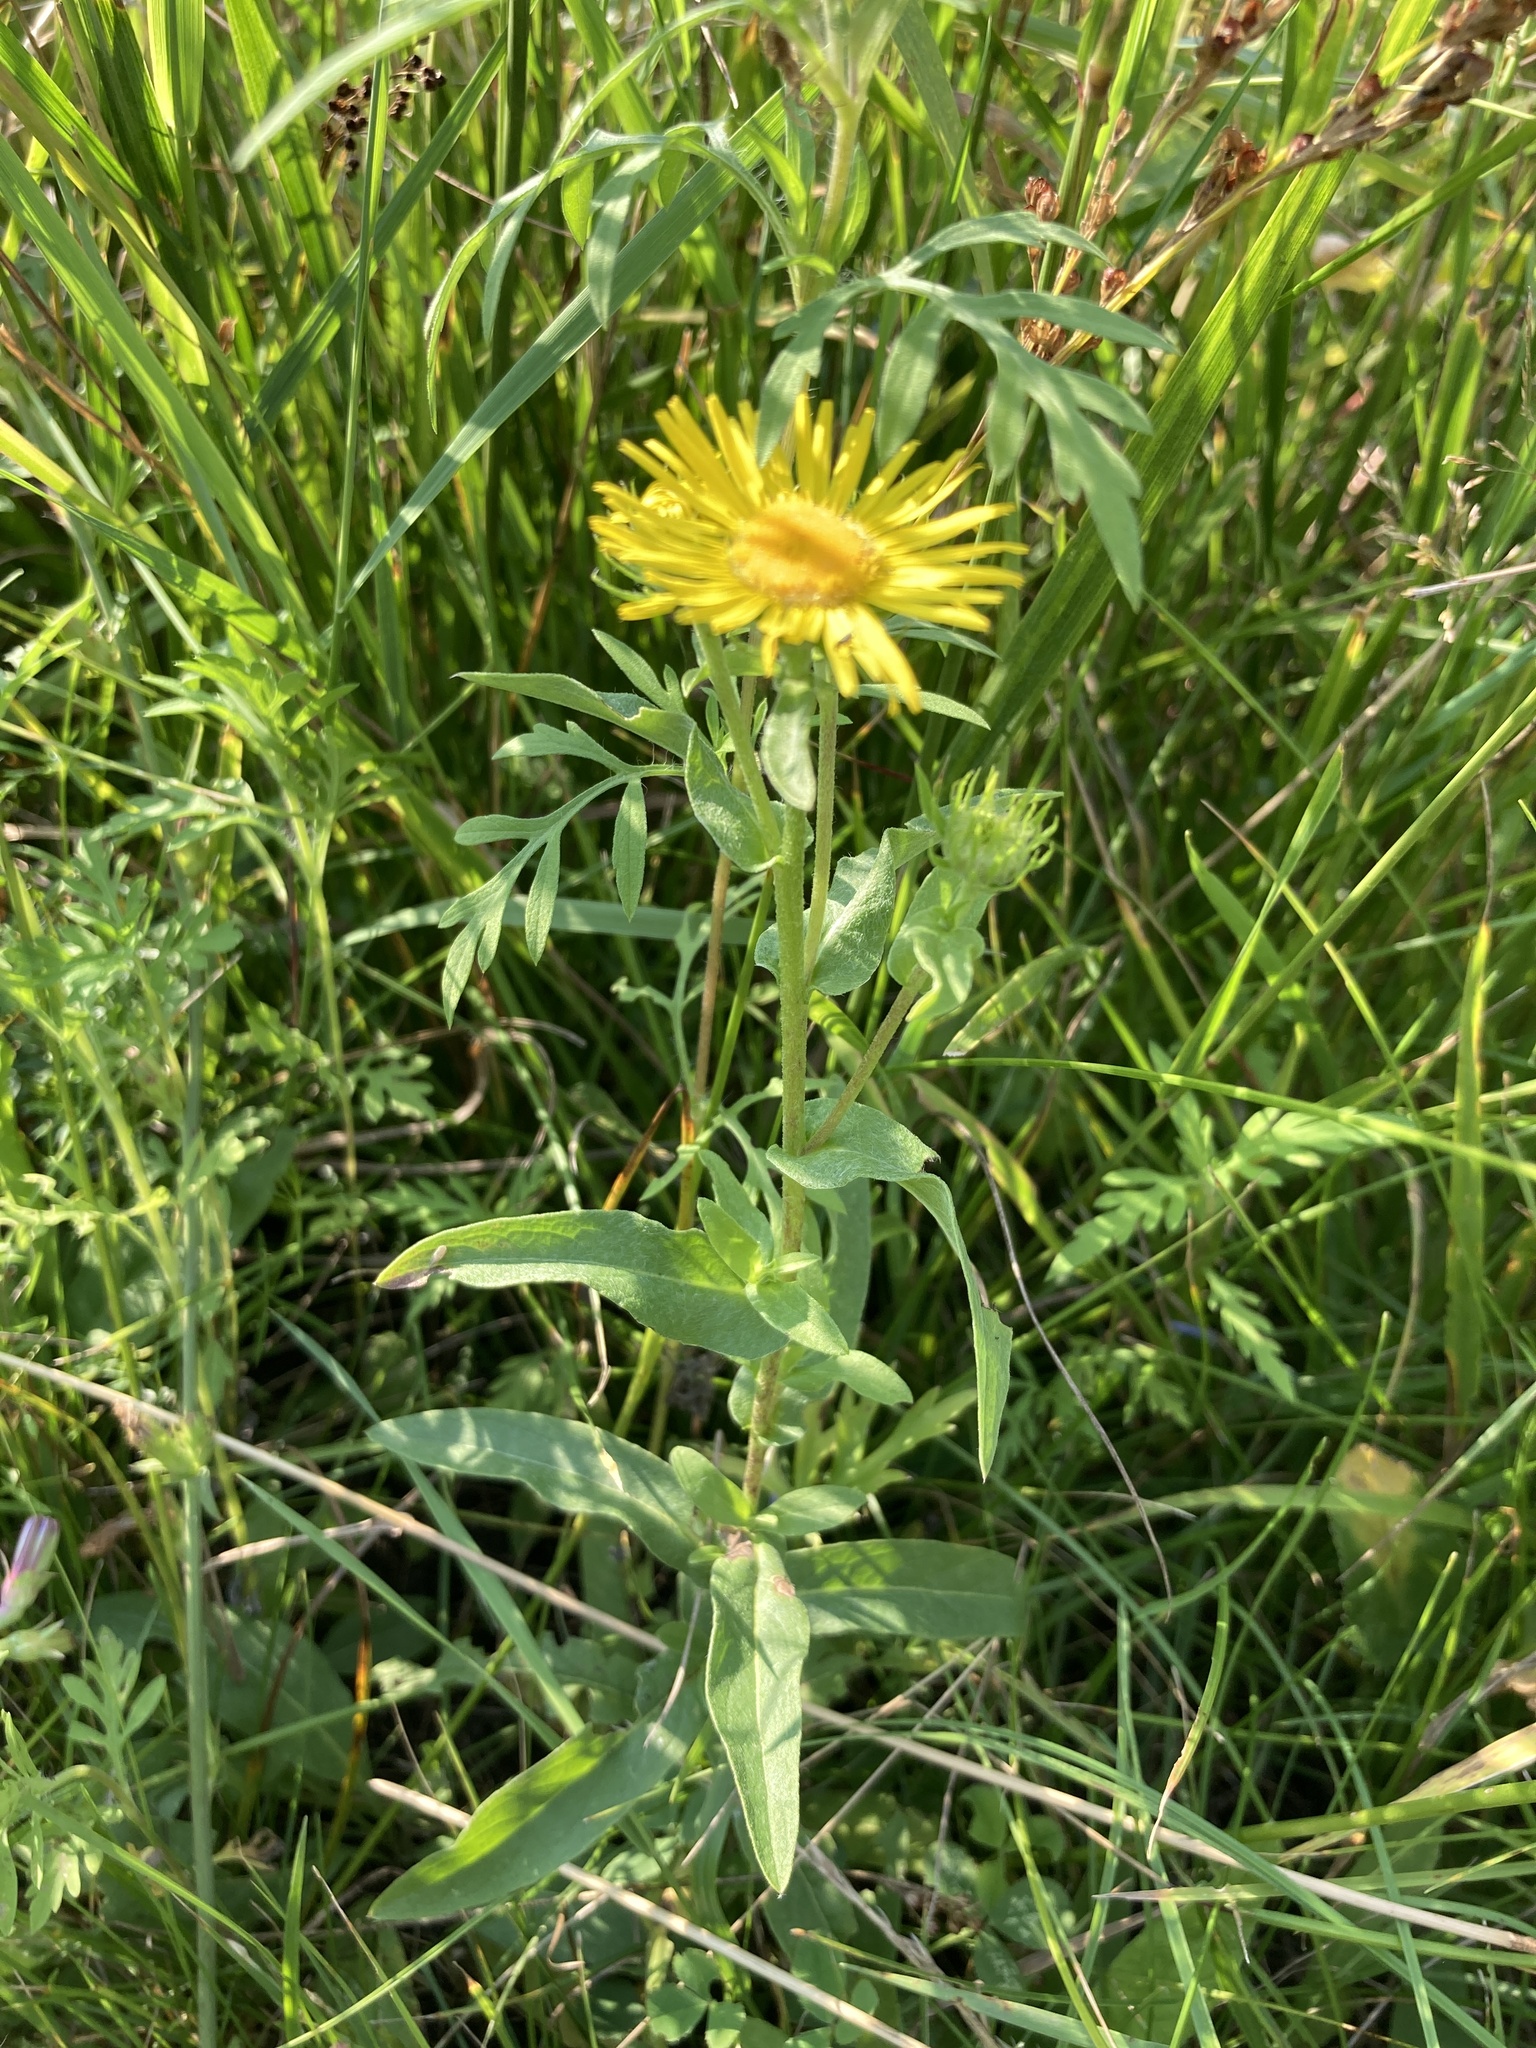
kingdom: Plantae
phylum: Tracheophyta
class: Magnoliopsida
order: Asterales
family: Asteraceae
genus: Pentanema
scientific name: Pentanema britannicum
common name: British elecampane
